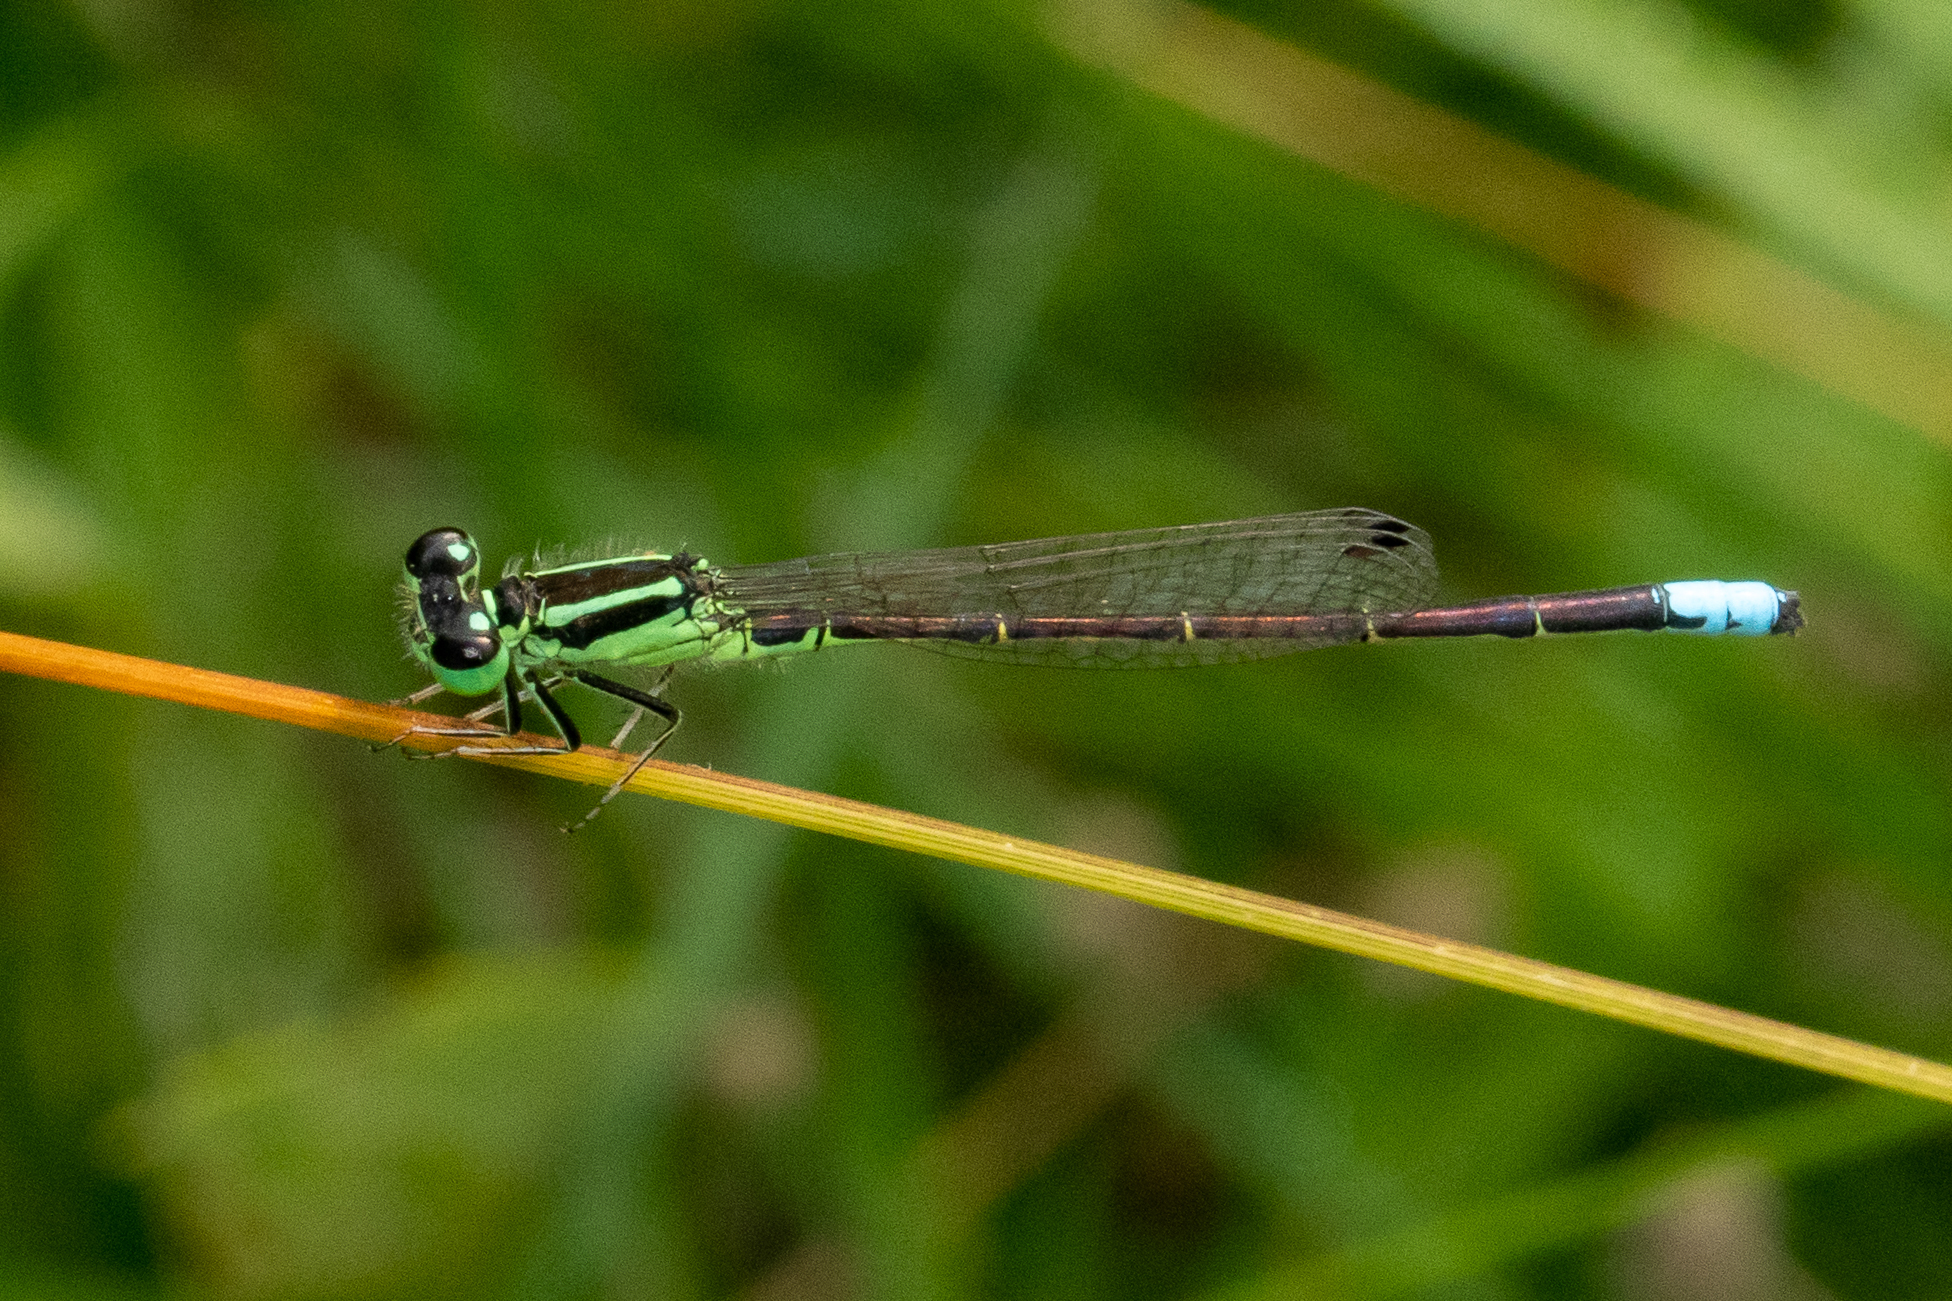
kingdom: Animalia
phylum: Arthropoda
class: Insecta
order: Odonata
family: Coenagrionidae
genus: Ischnura
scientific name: Ischnura verticalis
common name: Eastern forktail
